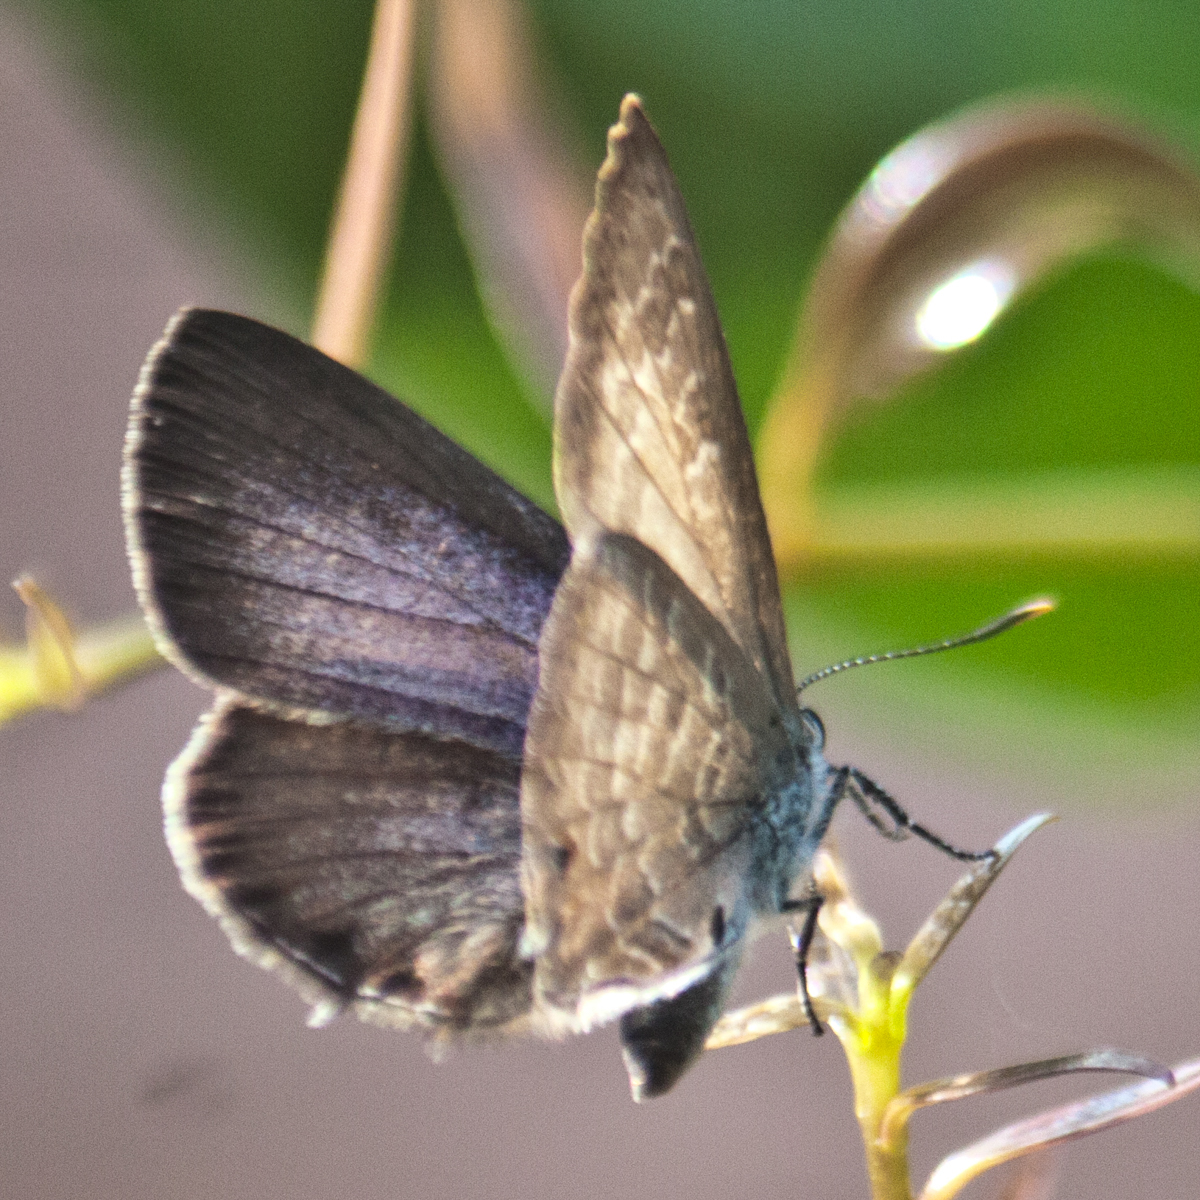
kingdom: Animalia
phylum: Arthropoda
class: Insecta
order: Lepidoptera
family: Lycaenidae
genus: Anthene
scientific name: Anthene emolus
